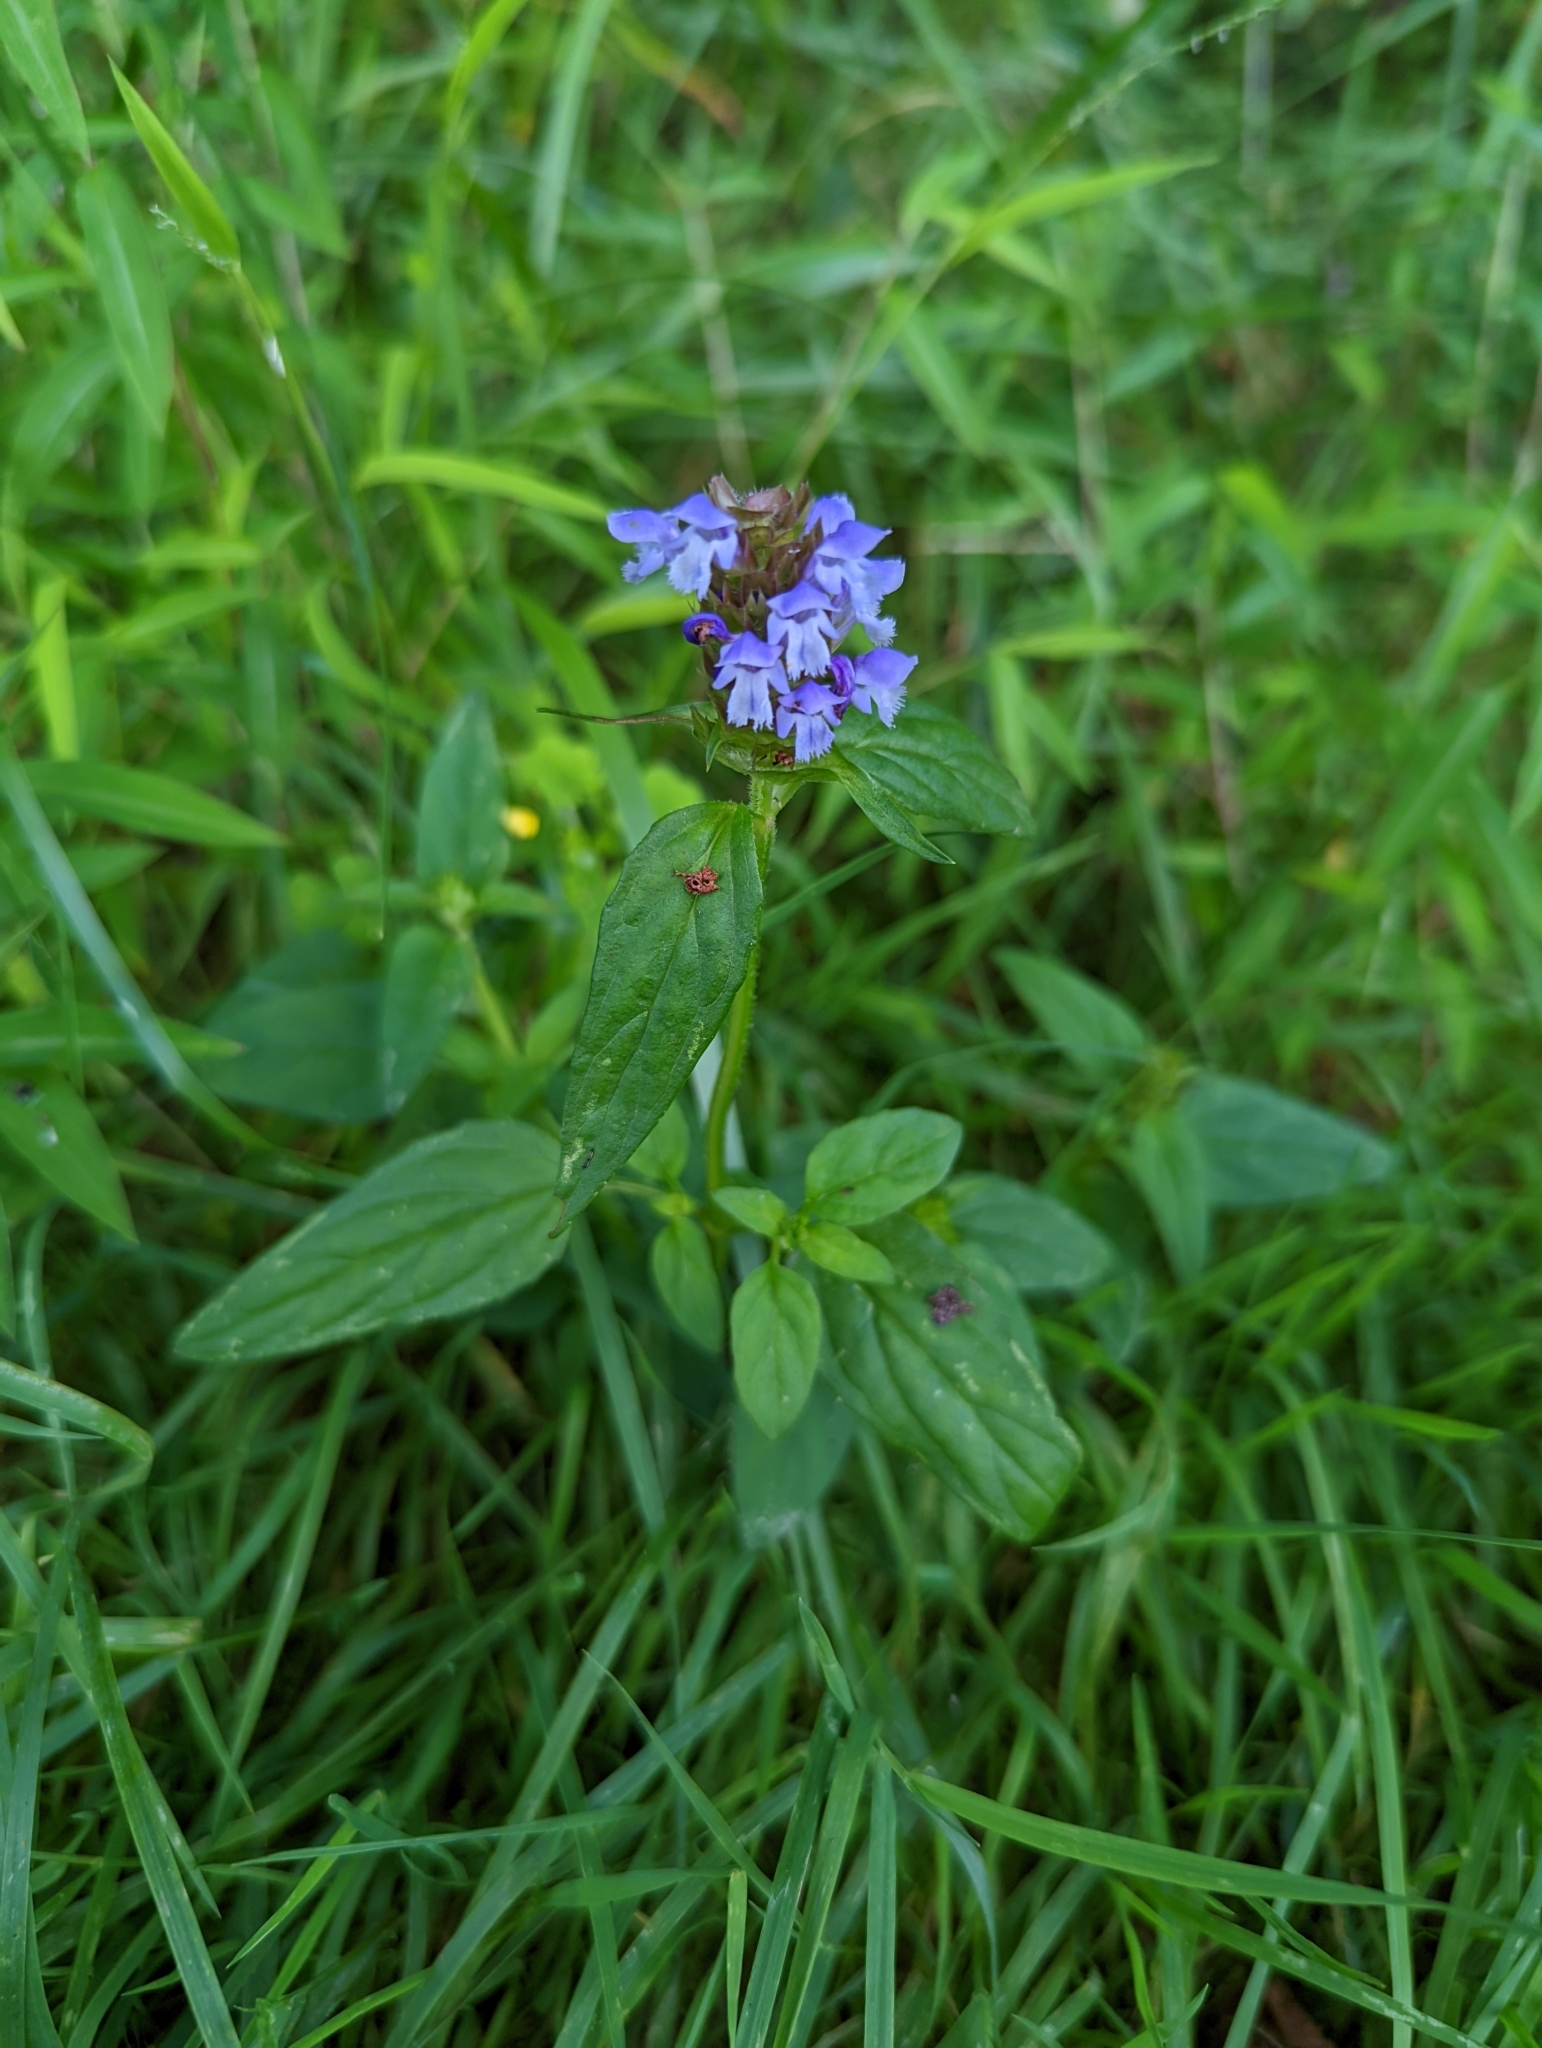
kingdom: Plantae
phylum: Tracheophyta
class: Magnoliopsida
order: Lamiales
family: Lamiaceae
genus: Prunella
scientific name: Prunella vulgaris
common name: Heal-all
